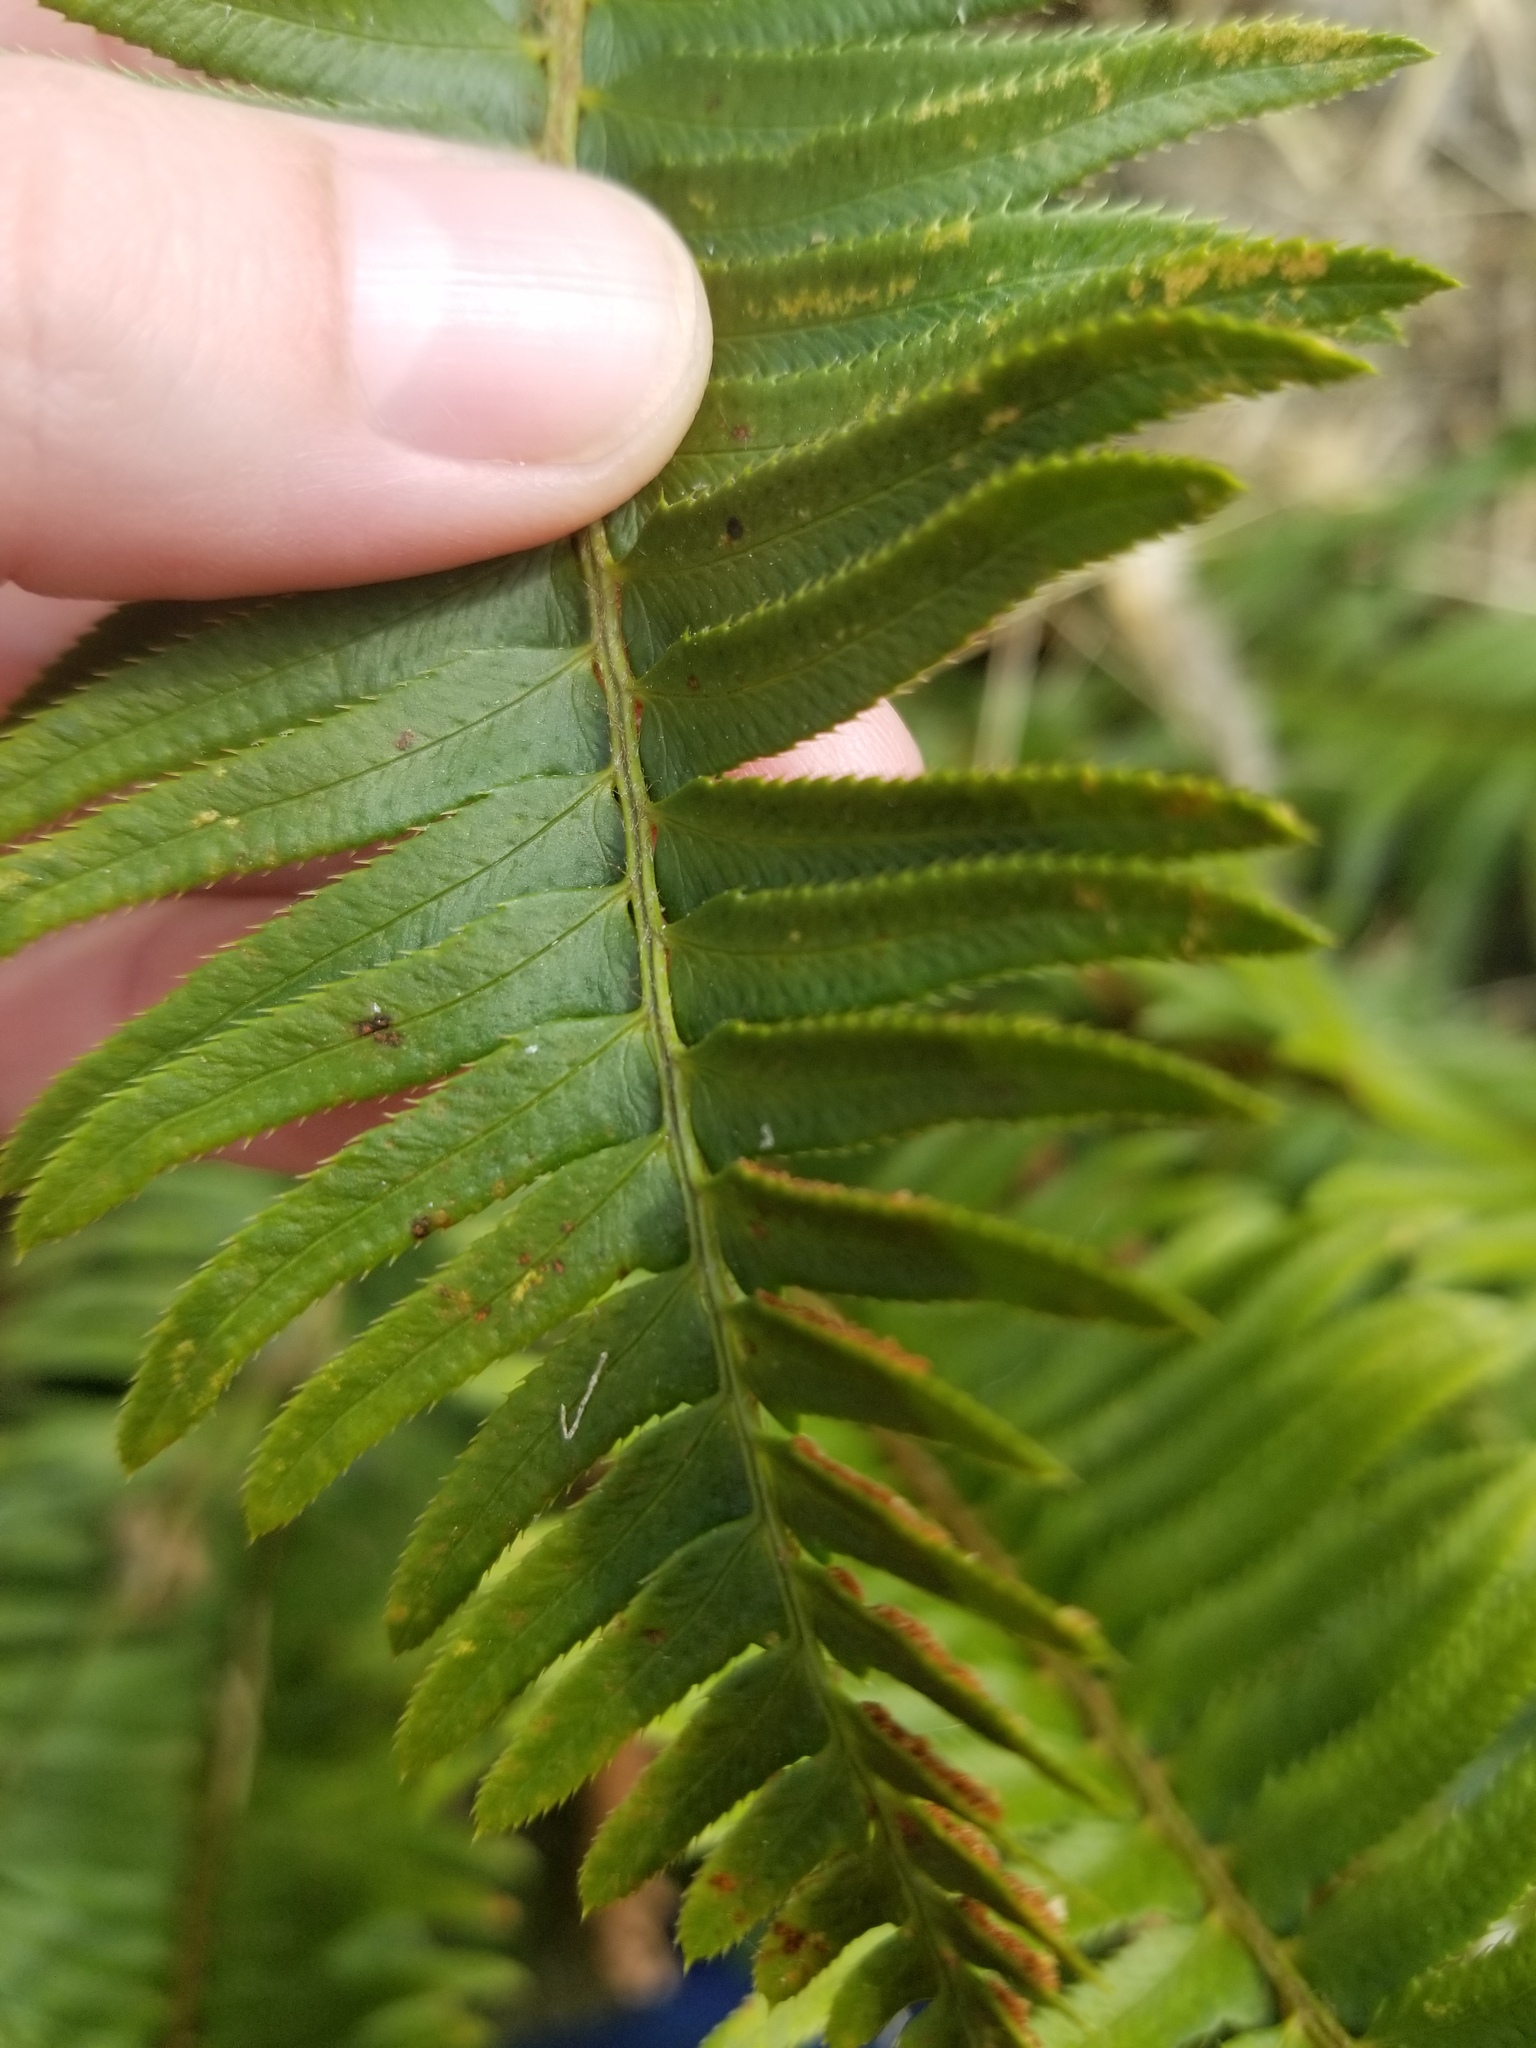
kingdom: Plantae
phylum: Tracheophyta
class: Polypodiopsida
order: Polypodiales
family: Dryopteridaceae
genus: Polystichum
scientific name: Polystichum munitum
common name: Western sword-fern
